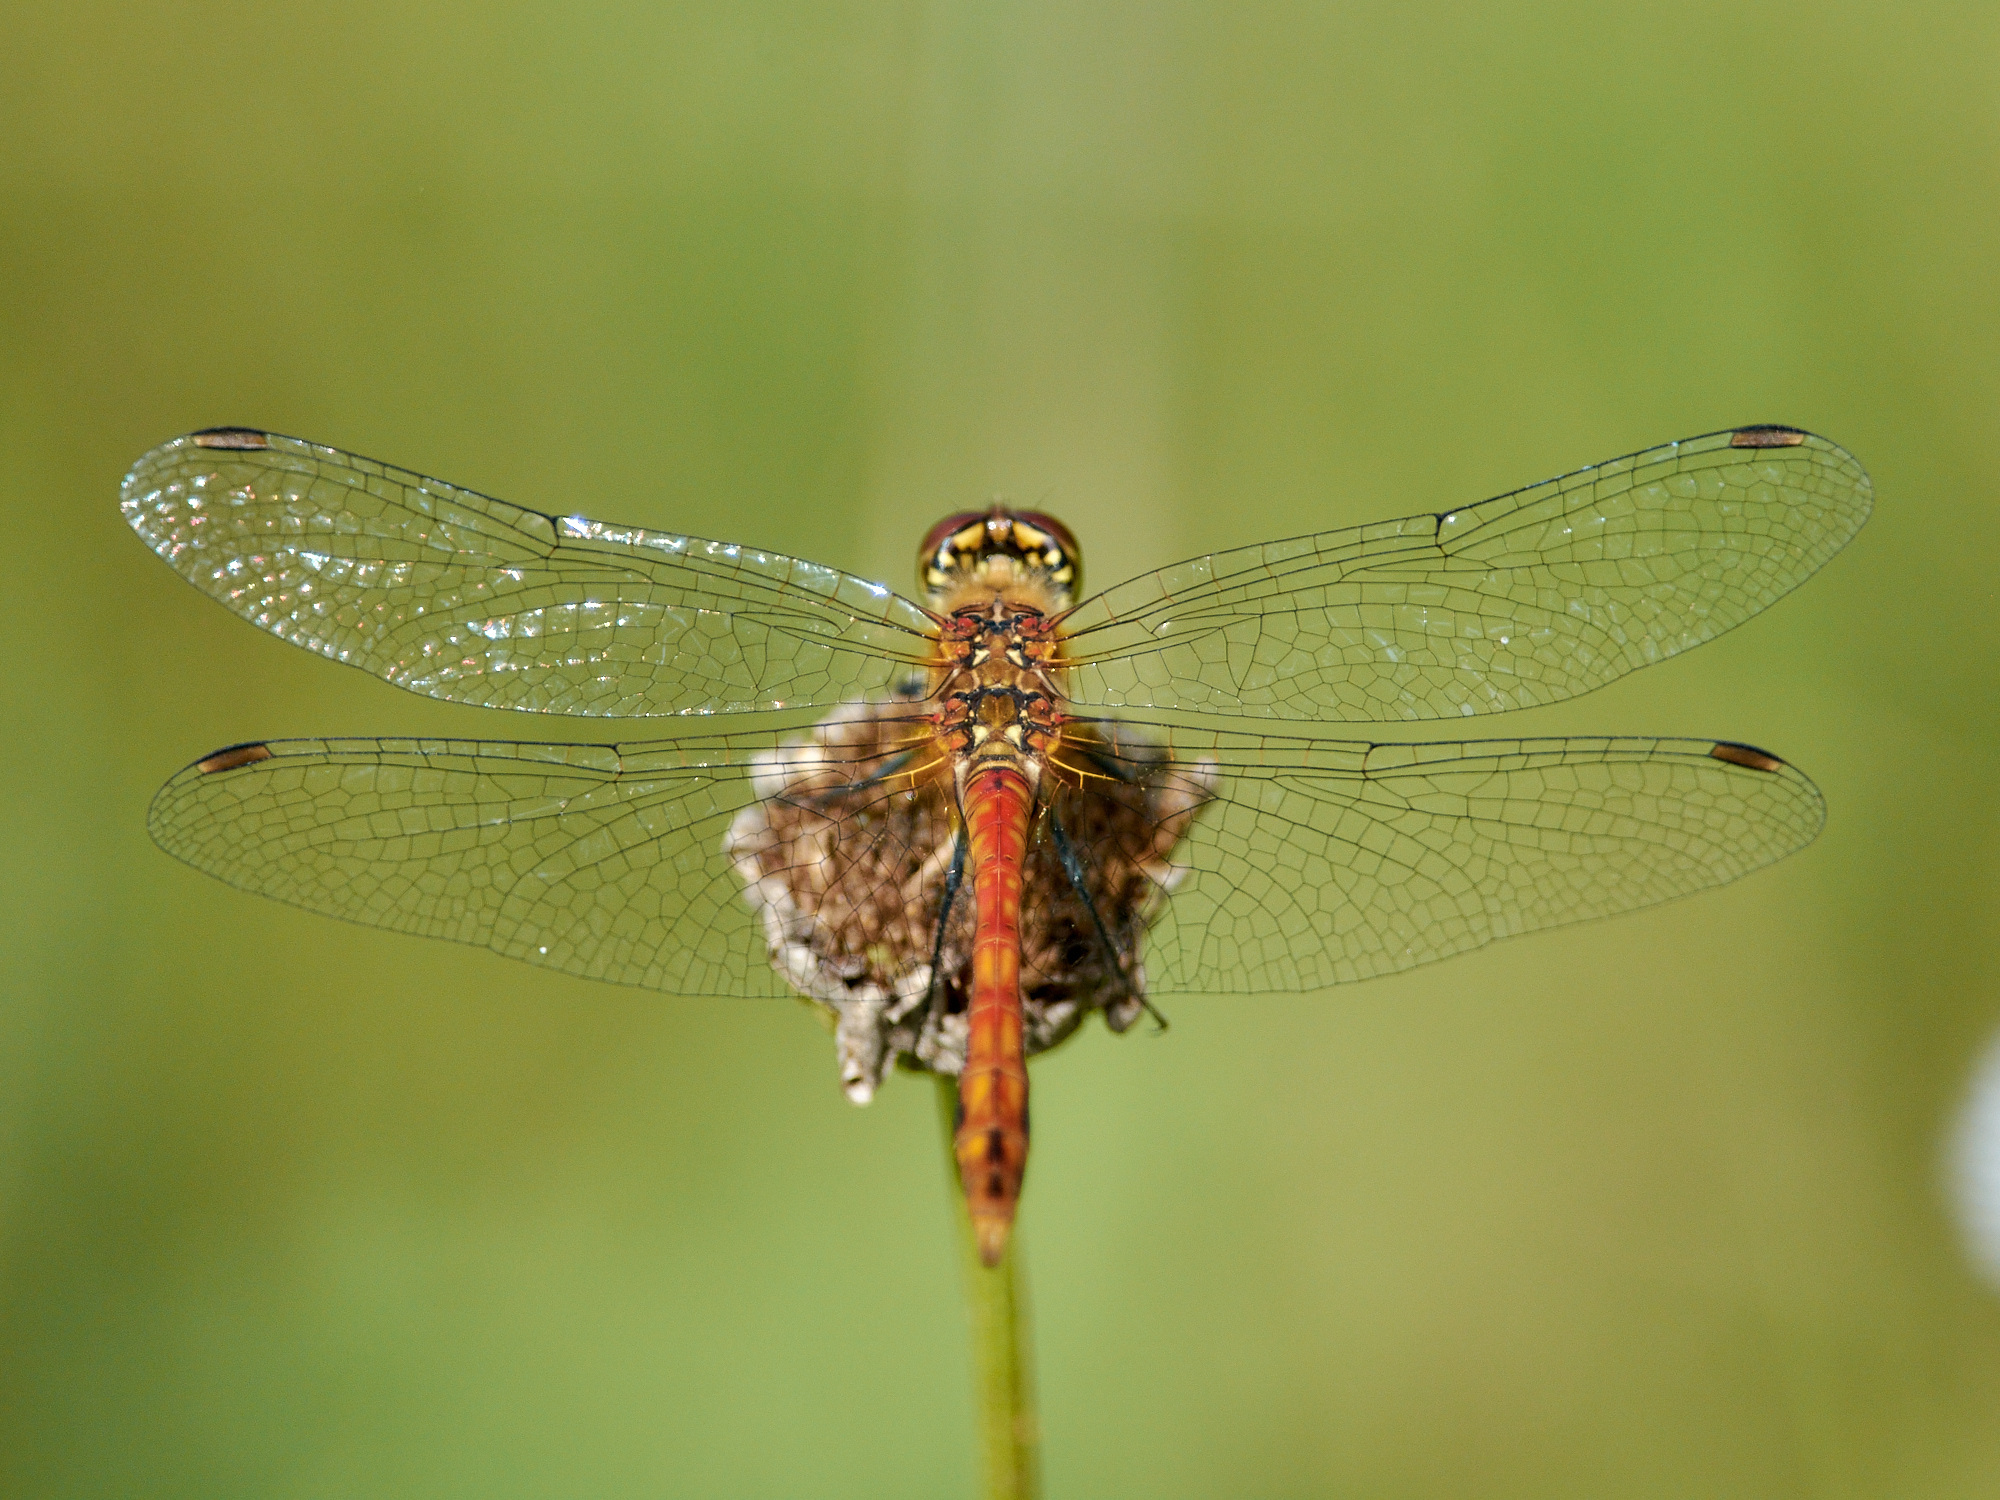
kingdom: Animalia
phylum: Arthropoda
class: Insecta
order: Odonata
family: Libellulidae
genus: Sympetrum
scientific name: Sympetrum sanguineum
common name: Ruddy darter
